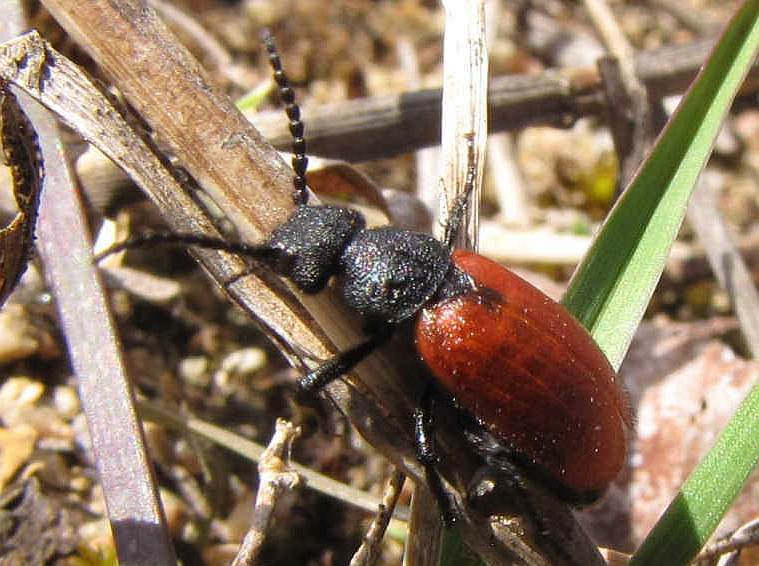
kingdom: Animalia
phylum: Arthropoda
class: Insecta
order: Coleoptera
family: Meloidae
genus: Tricrania
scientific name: Tricrania sanguinipennis
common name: Blood-winged blister beetle
